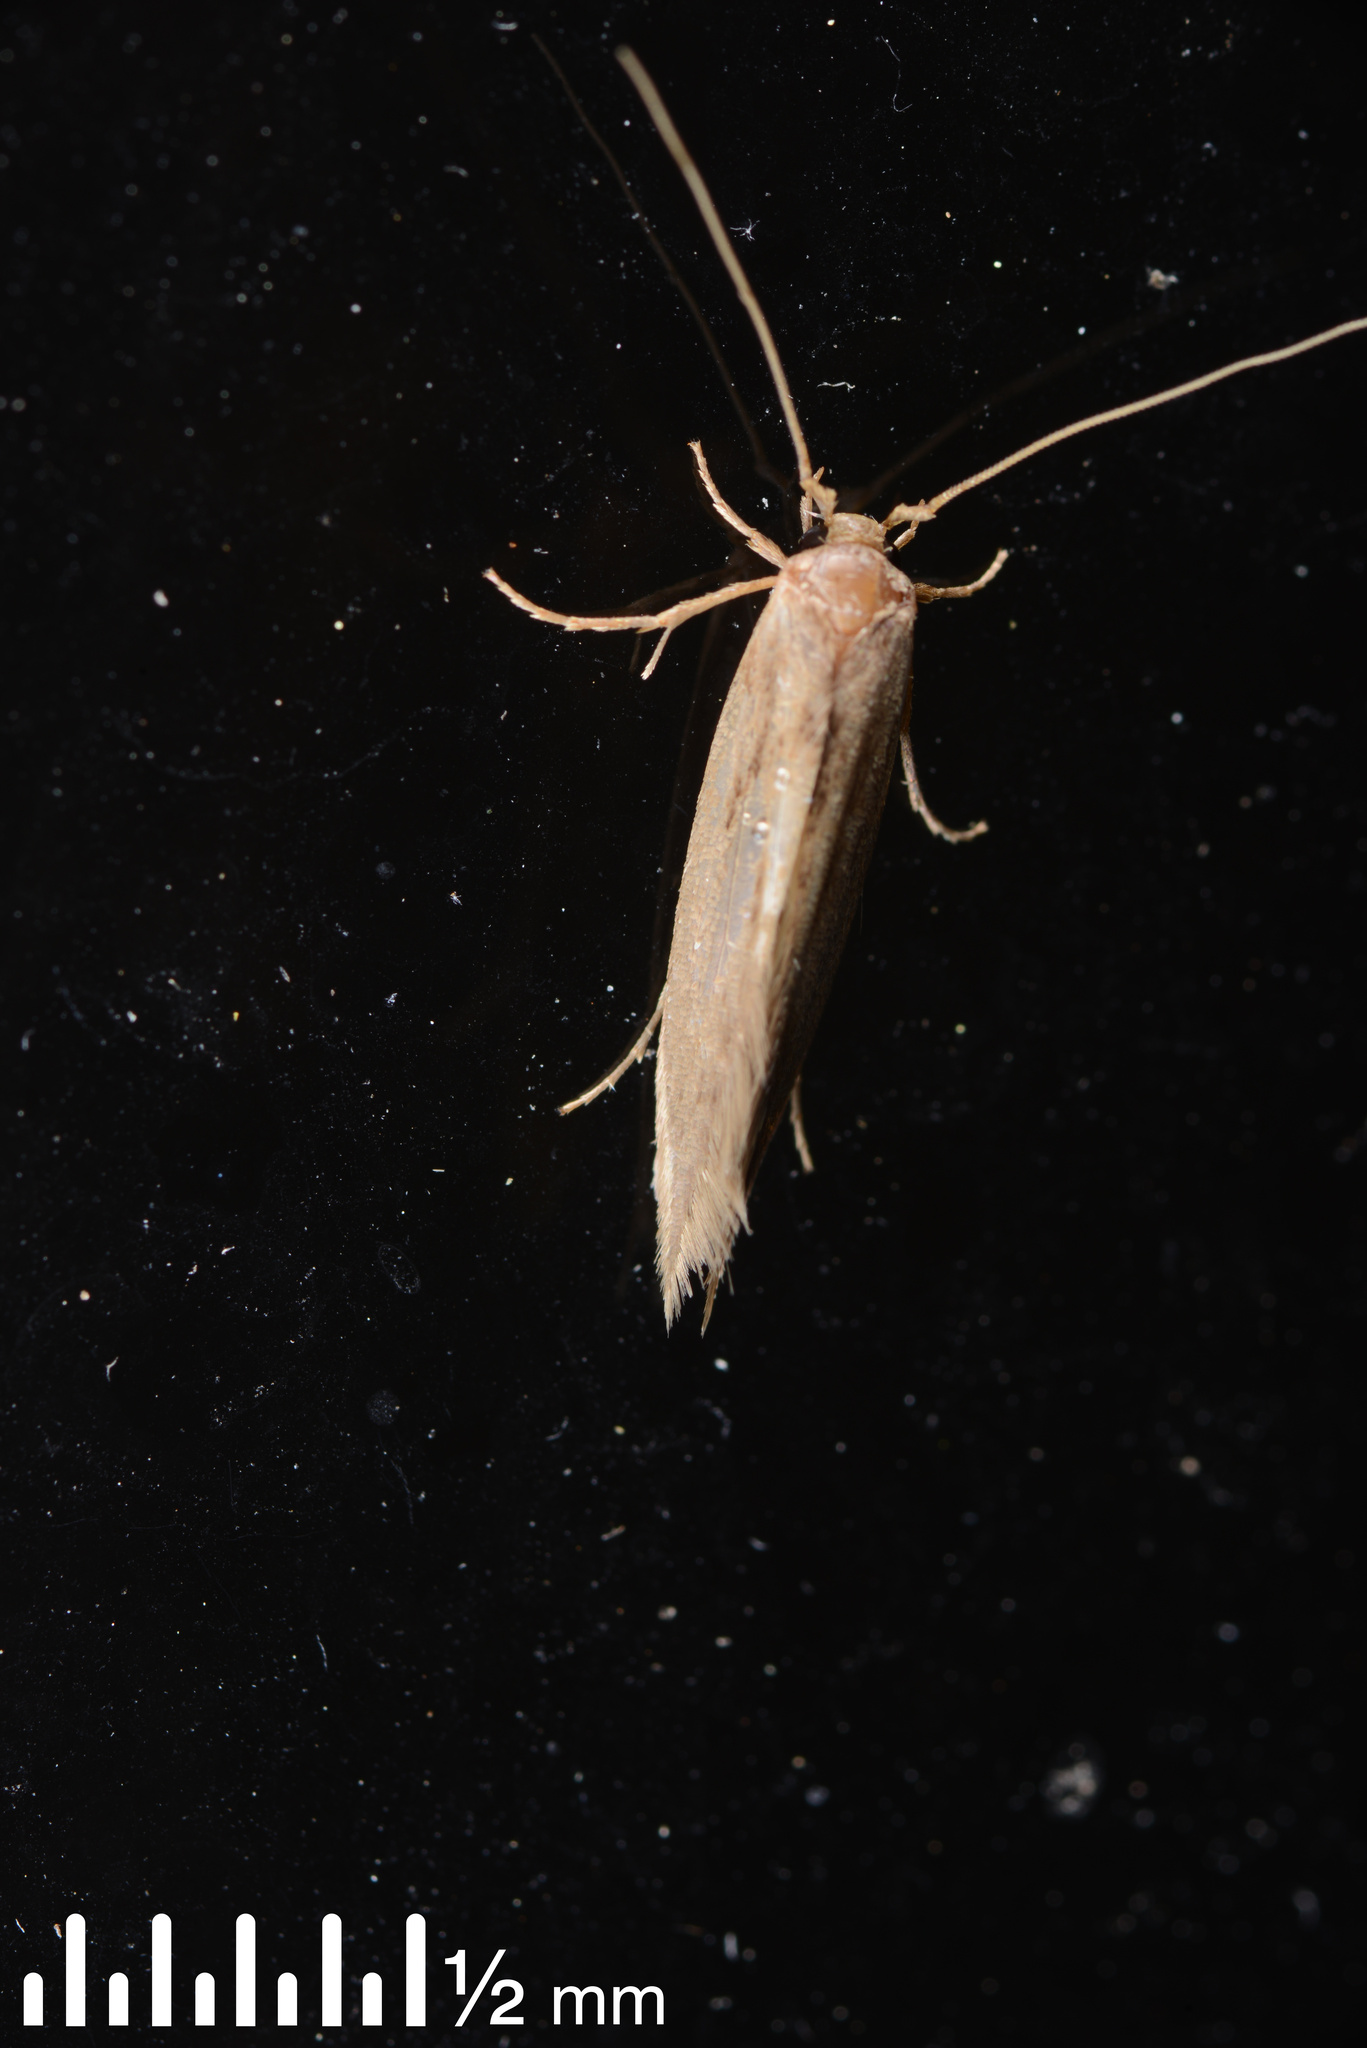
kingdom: Animalia
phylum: Arthropoda
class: Insecta
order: Lepidoptera
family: Tineidae
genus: Opogona
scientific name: Opogona omoscopa
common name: Moth
